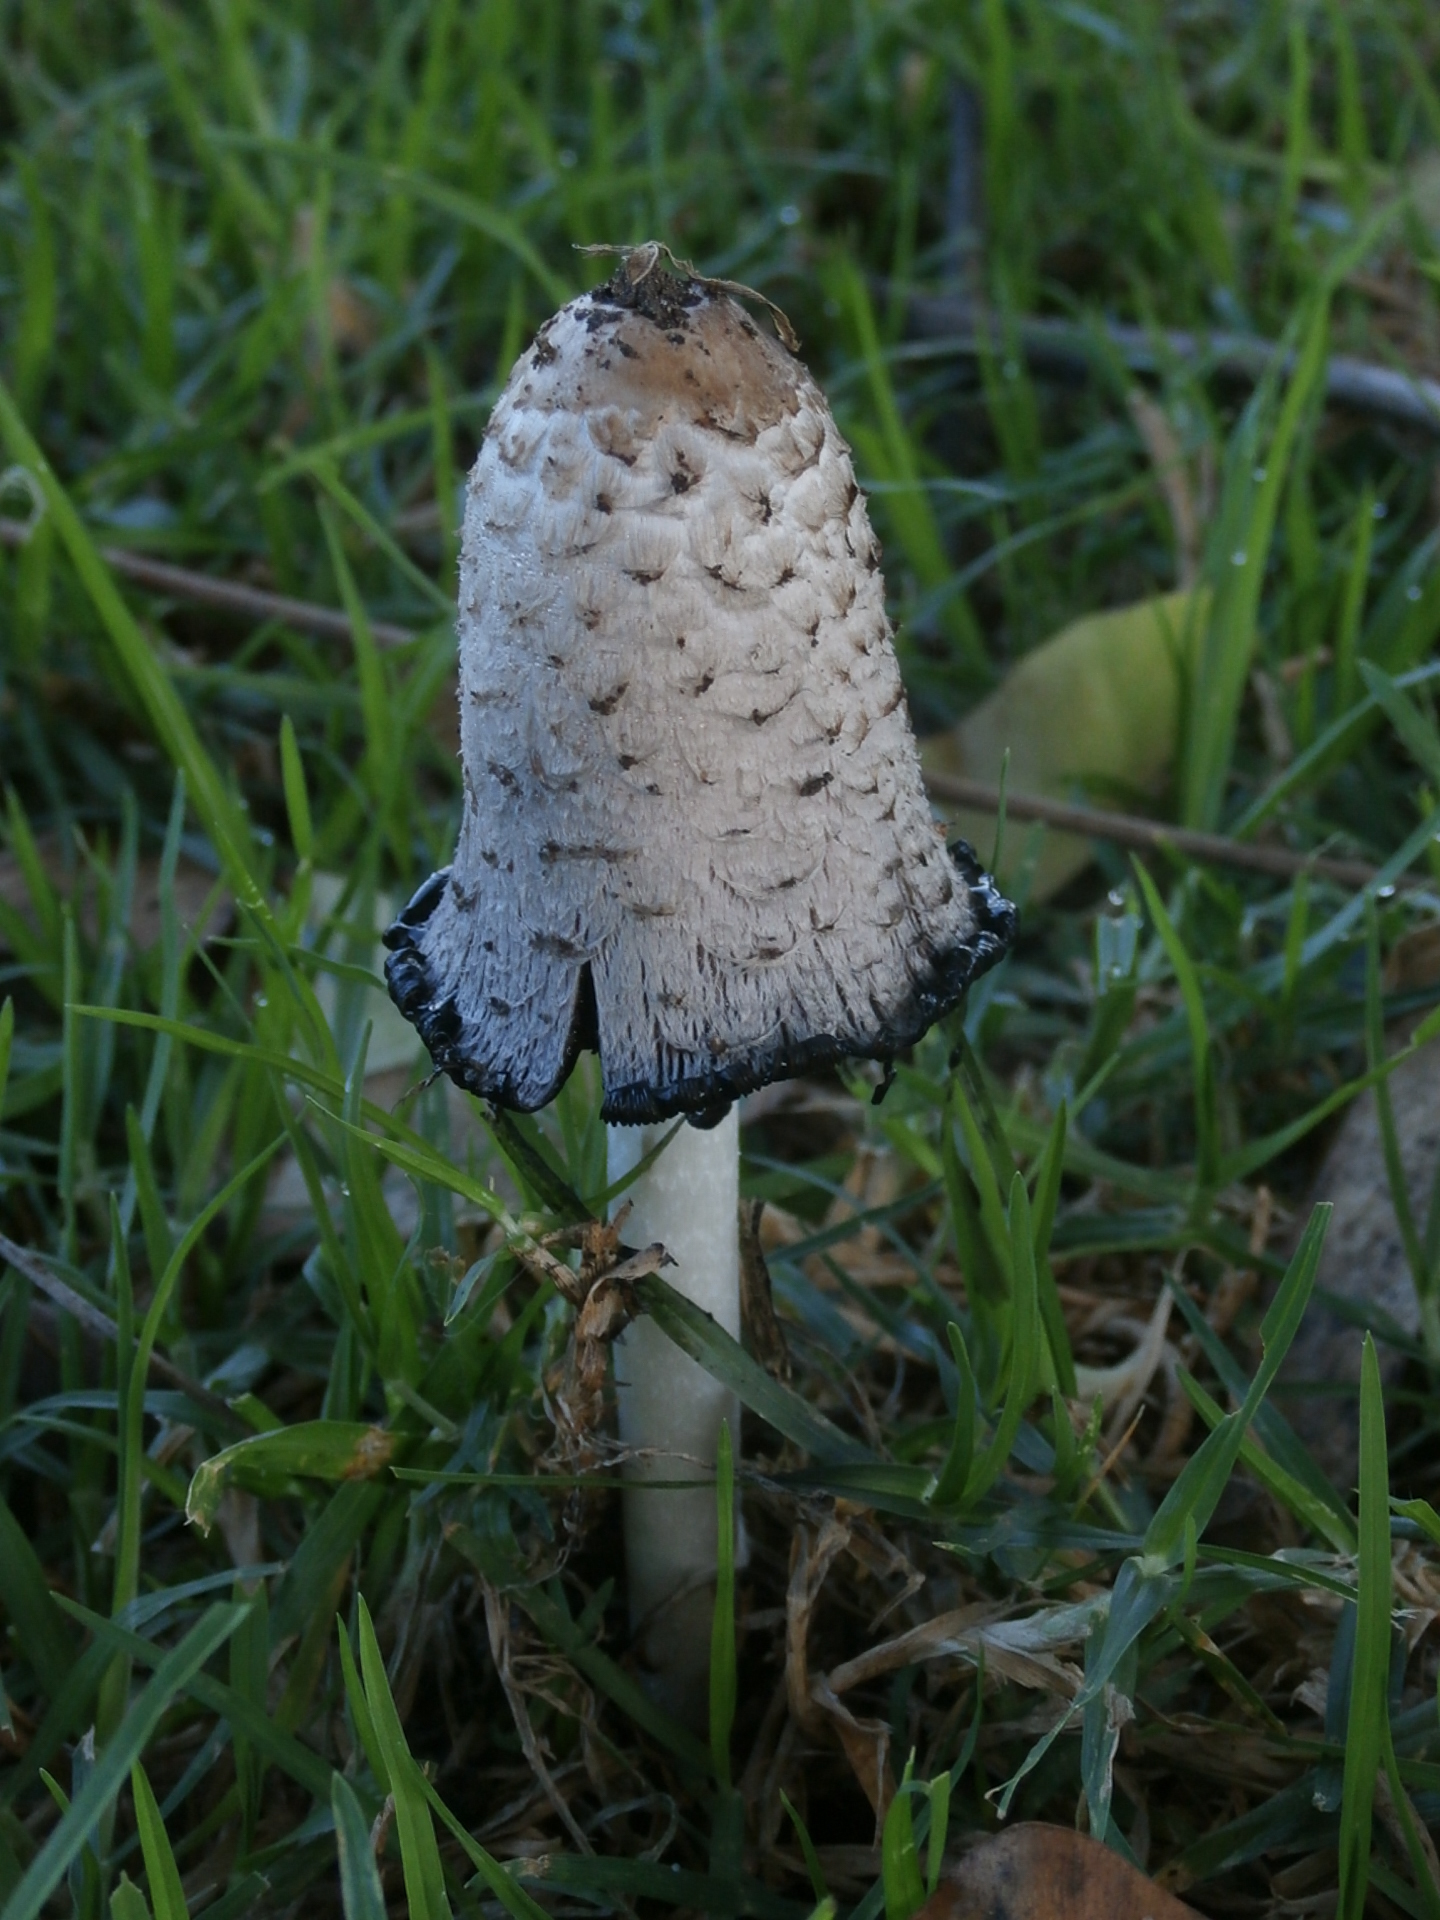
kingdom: Fungi
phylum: Basidiomycota
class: Agaricomycetes
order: Agaricales
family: Agaricaceae
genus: Coprinus
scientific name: Coprinus comatus
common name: Lawyer's wig
